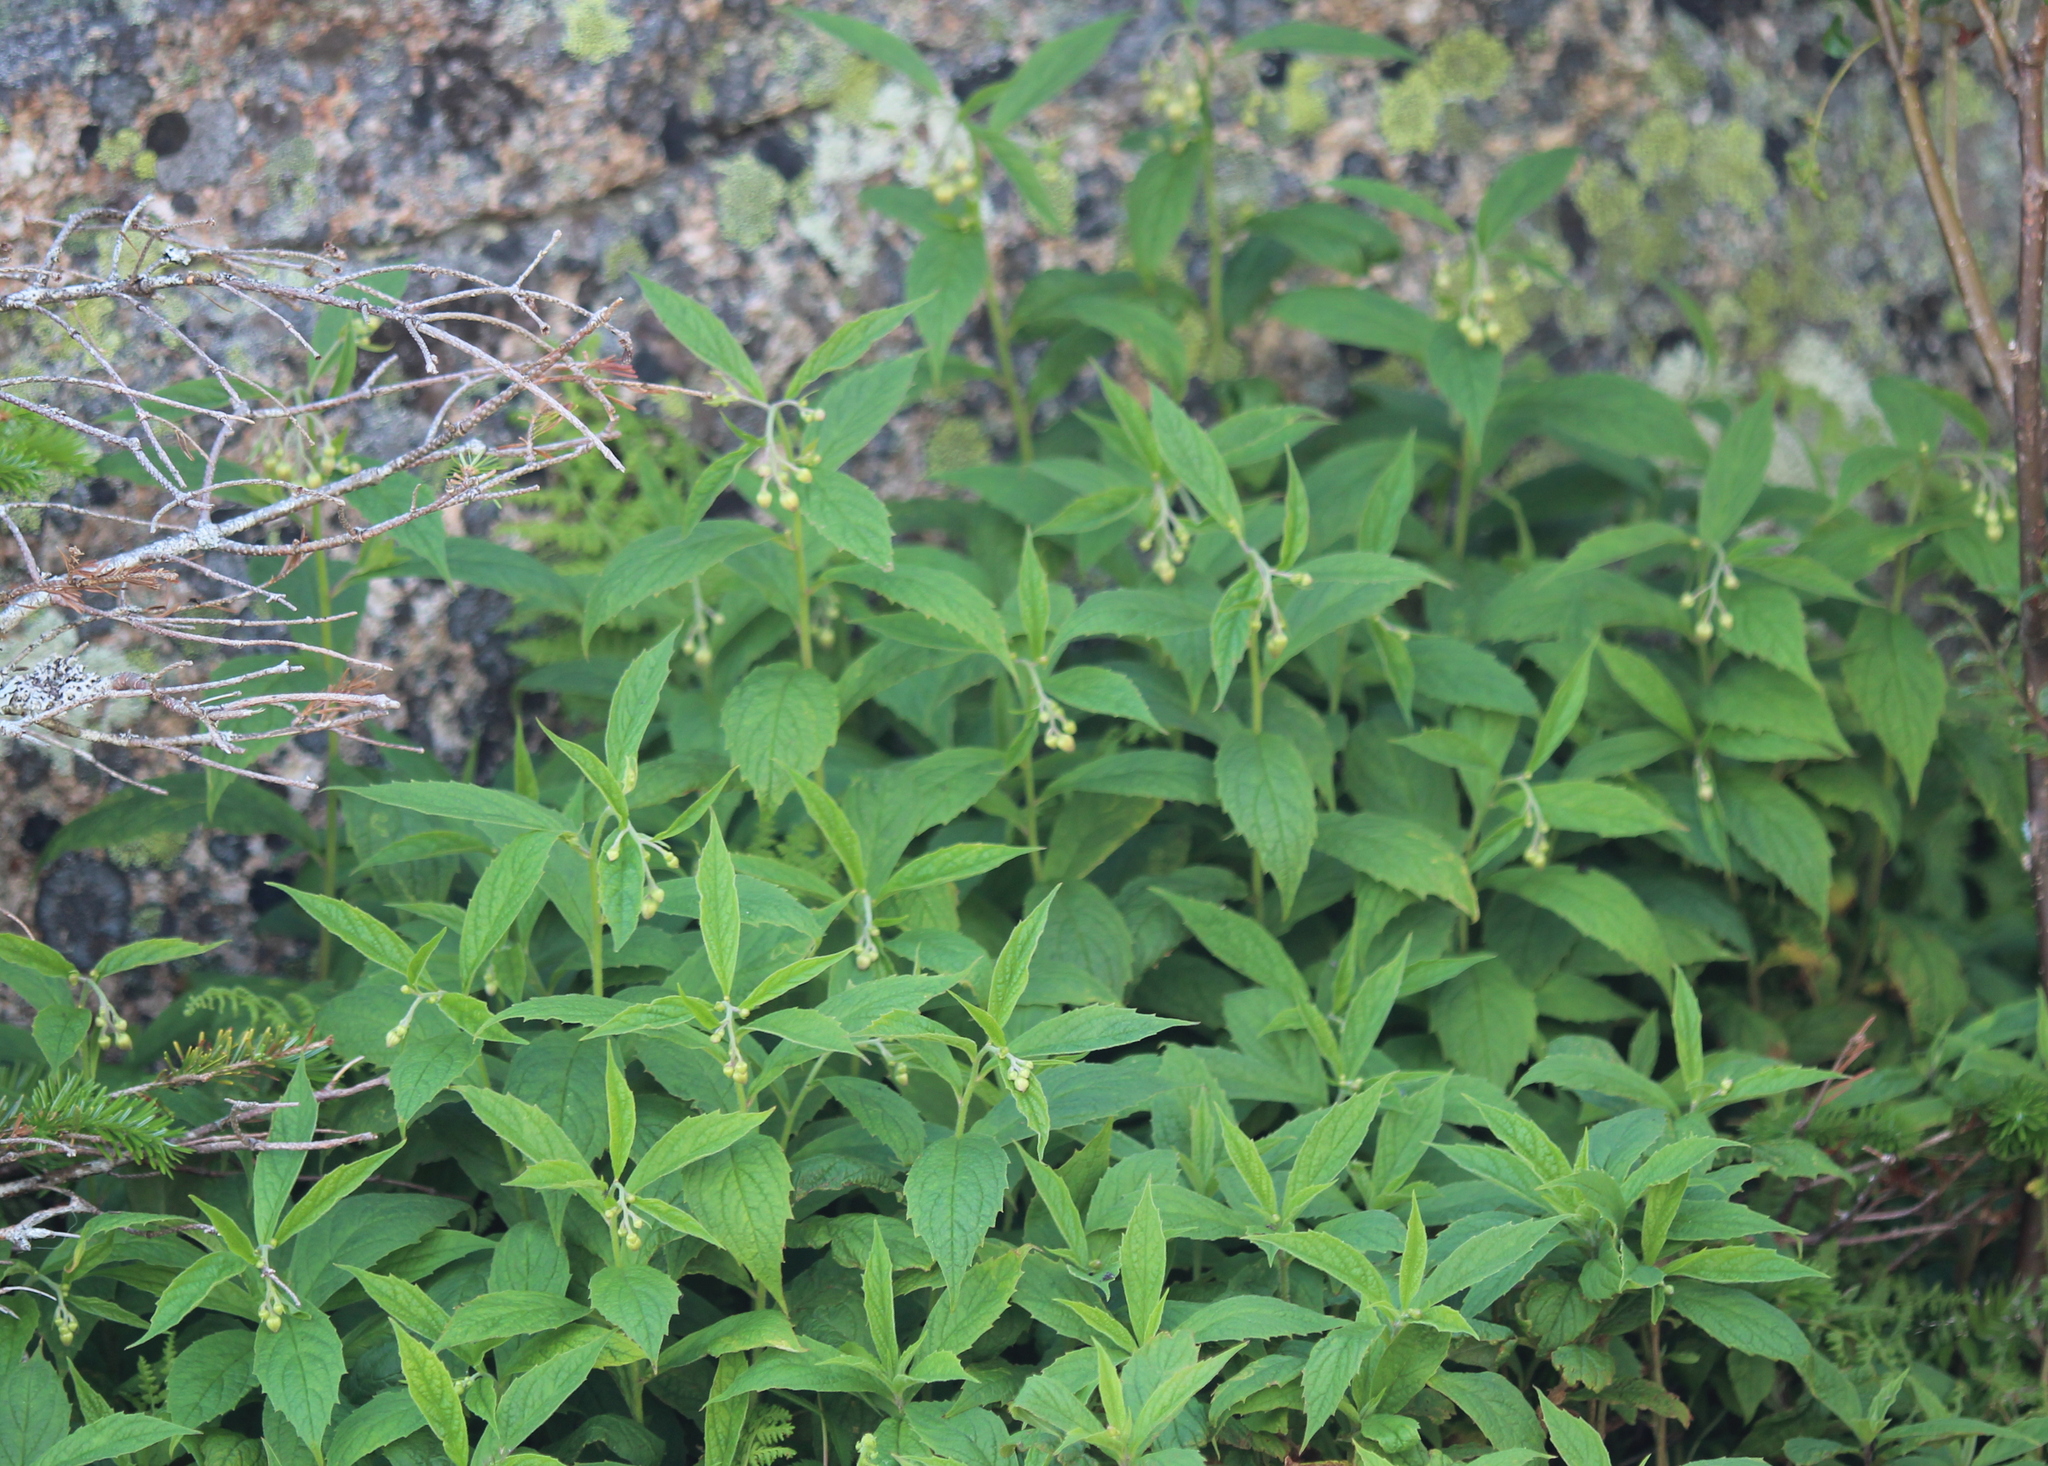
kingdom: Plantae
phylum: Tracheophyta
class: Magnoliopsida
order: Asterales
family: Asteraceae
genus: Oclemena
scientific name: Oclemena acuminata
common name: Mountain aster
